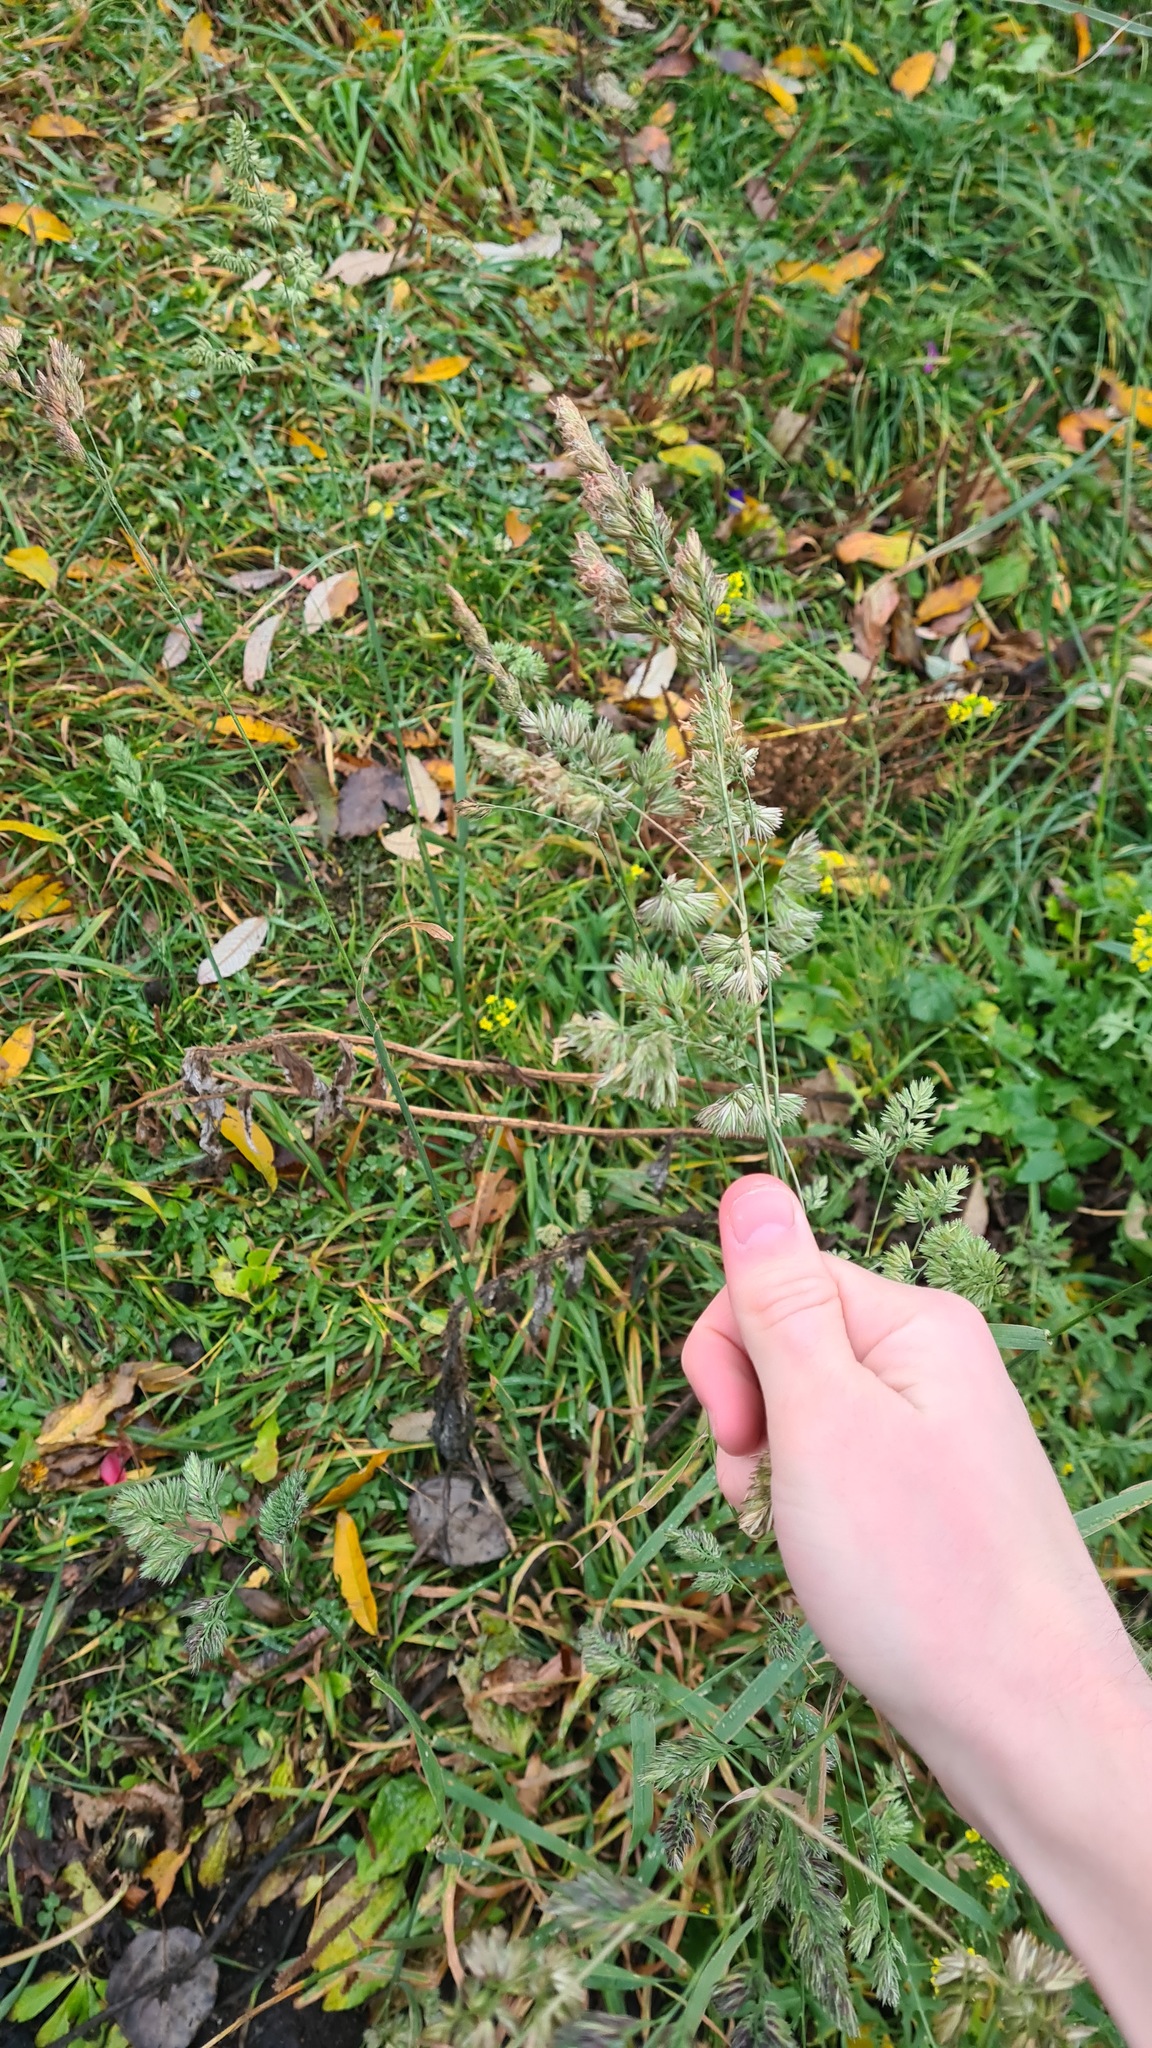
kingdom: Plantae
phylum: Tracheophyta
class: Liliopsida
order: Poales
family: Poaceae
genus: Dactylis
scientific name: Dactylis glomerata
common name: Orchardgrass
